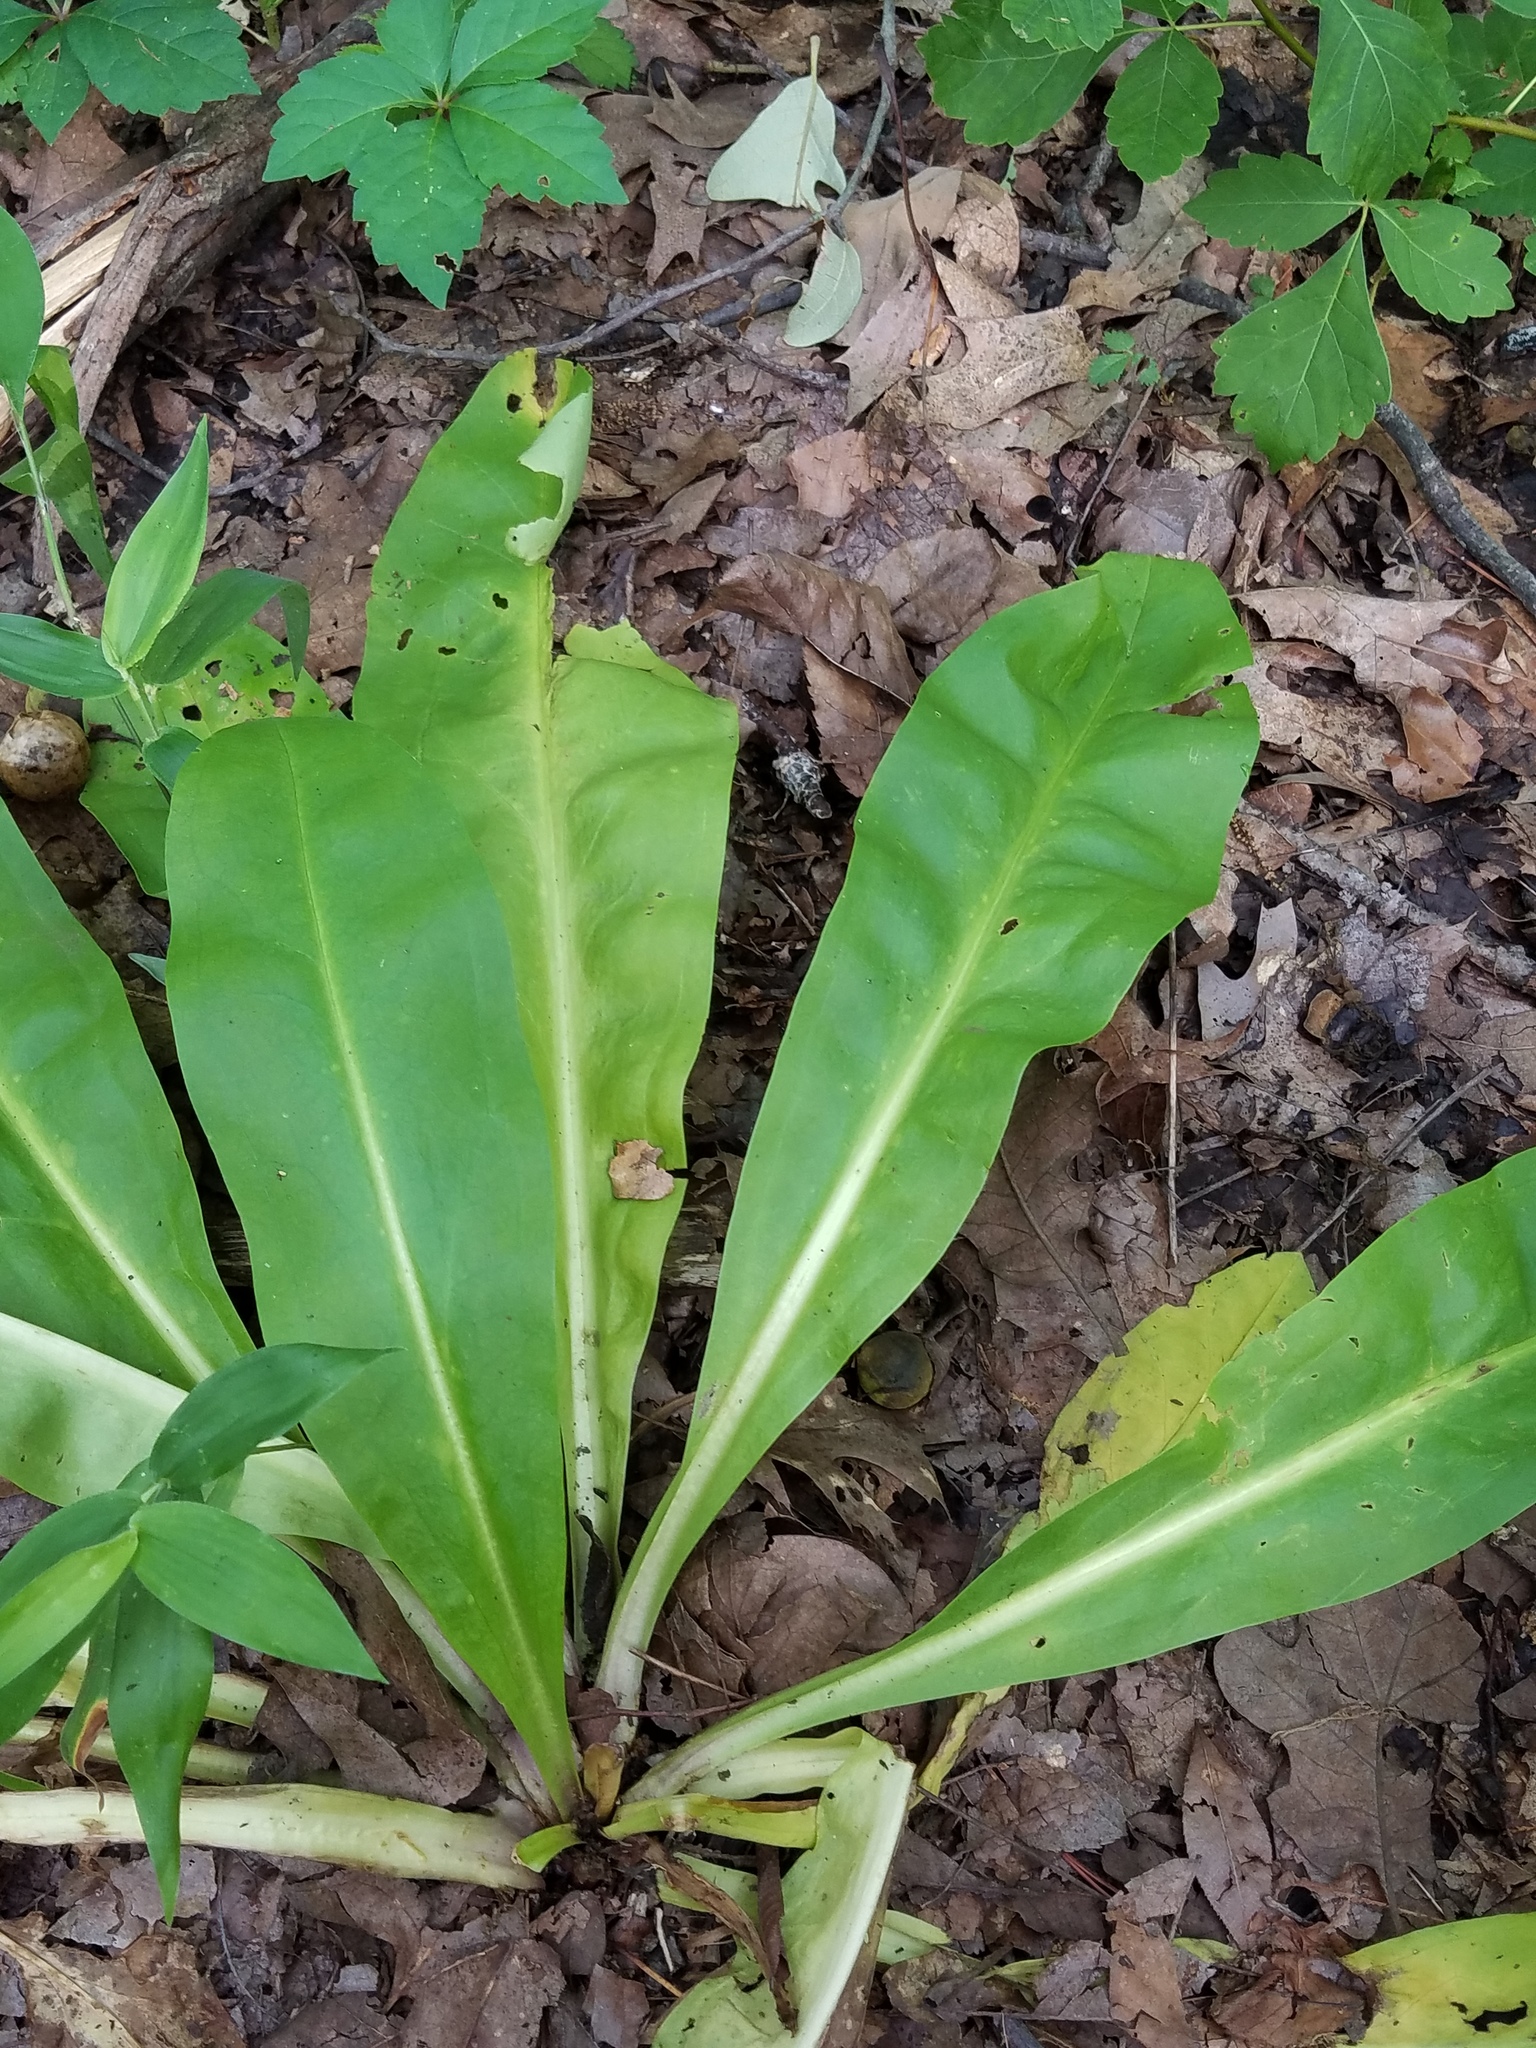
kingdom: Plantae
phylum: Tracheophyta
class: Magnoliopsida
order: Gentianales
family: Gentianaceae
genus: Frasera
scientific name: Frasera caroliniensis
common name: American columbo
